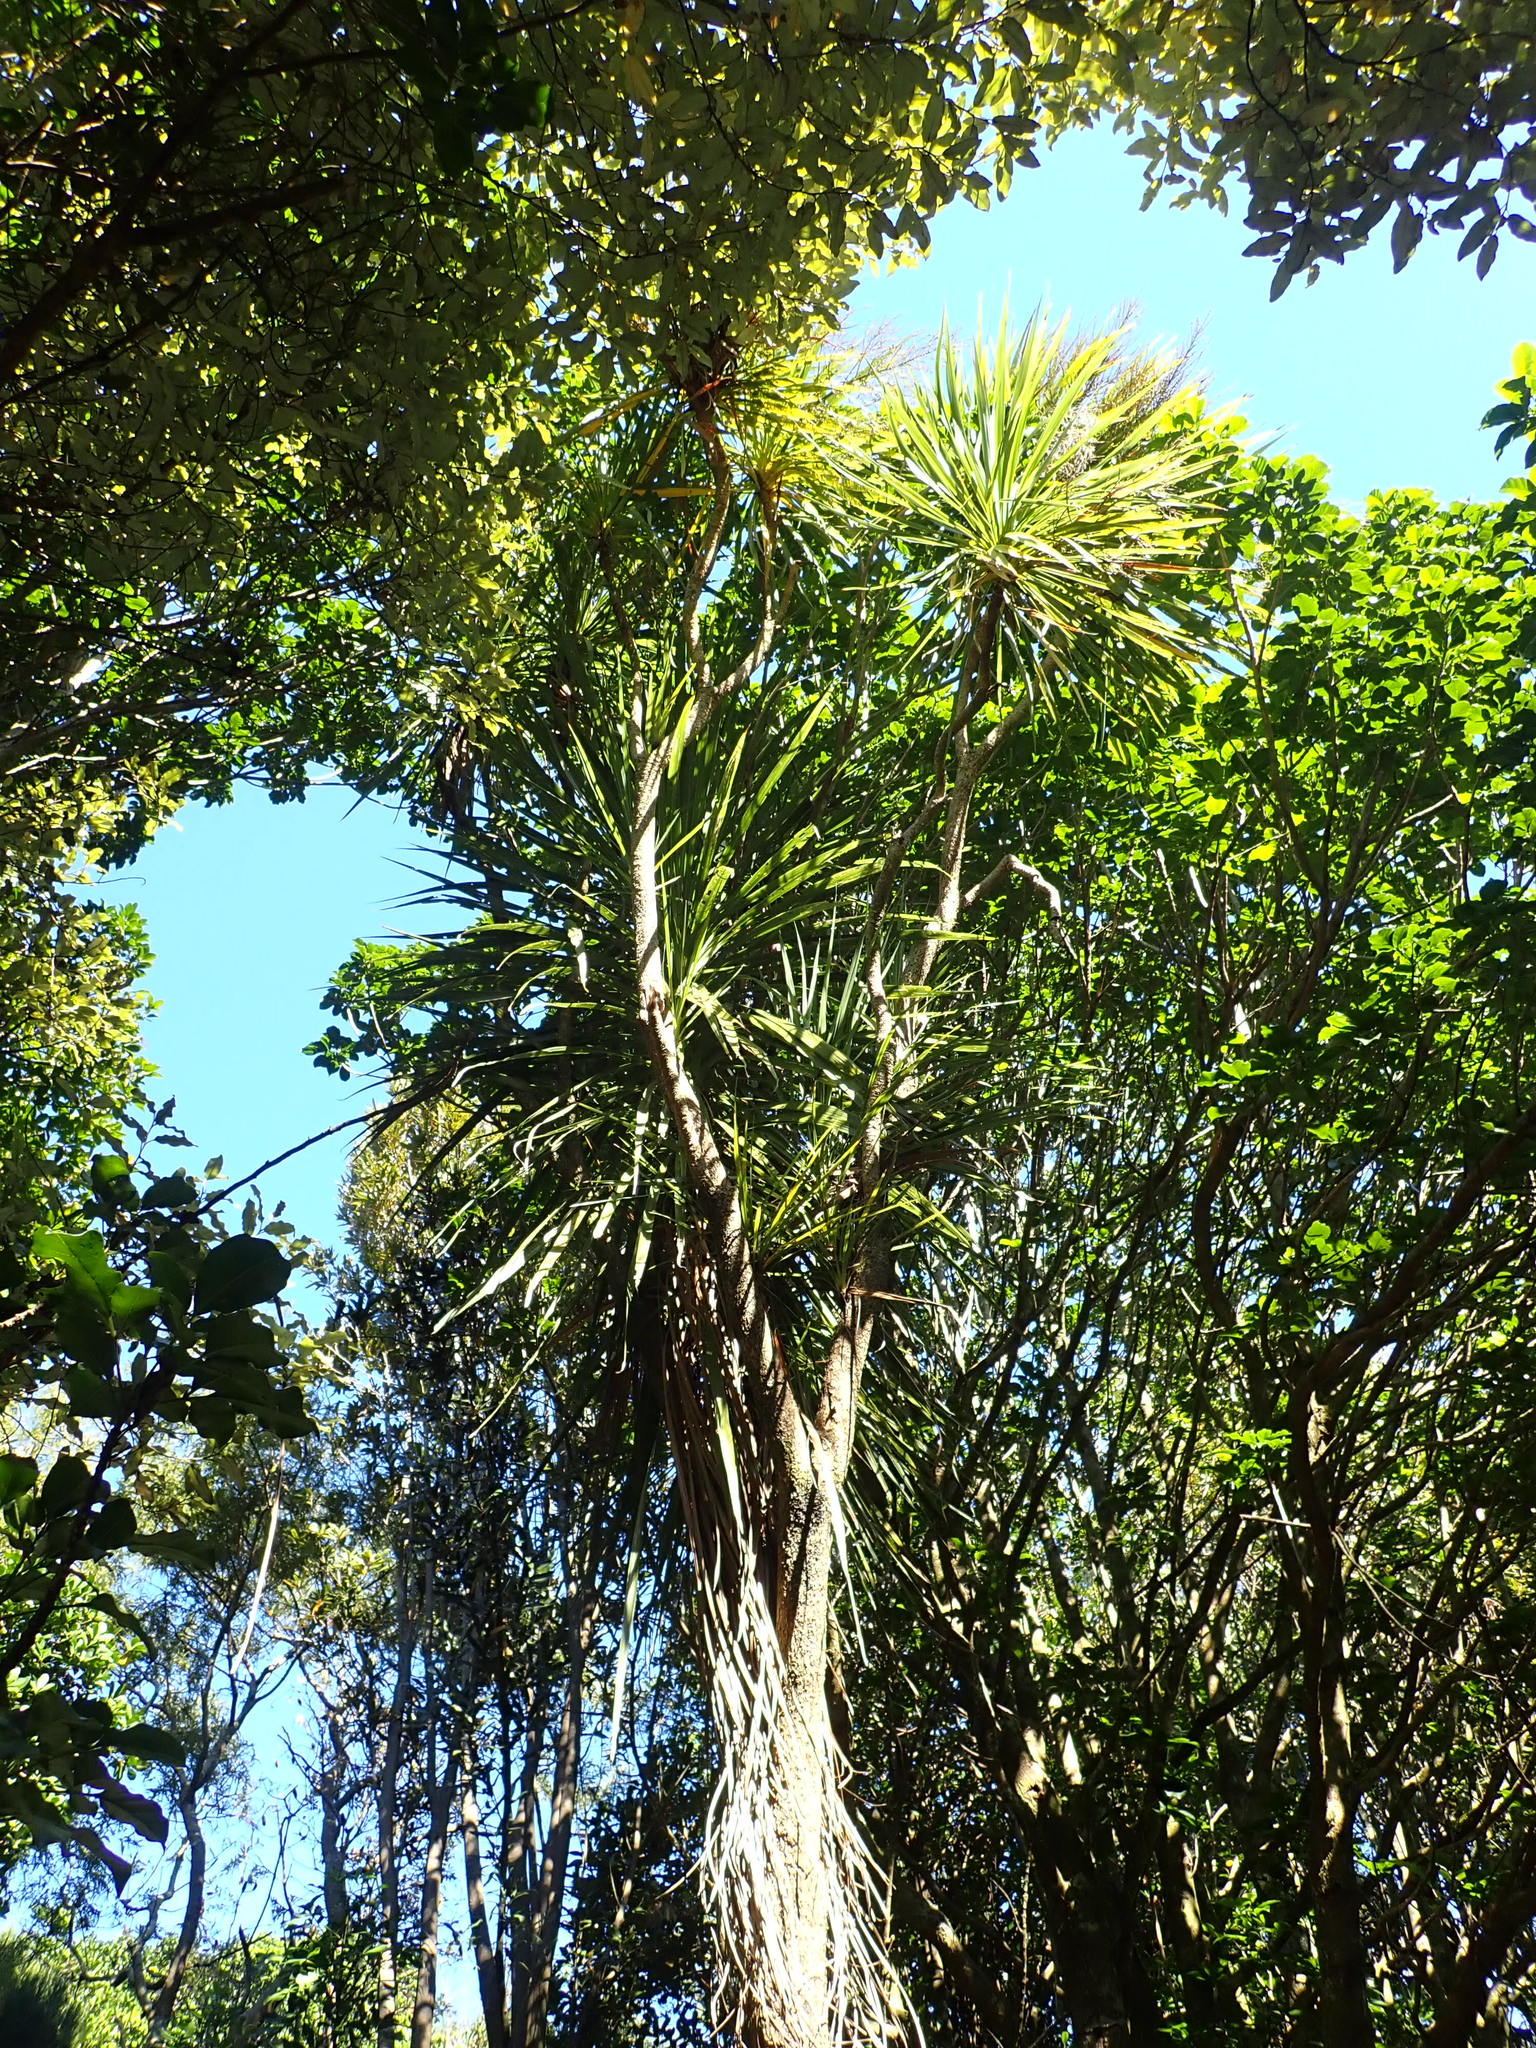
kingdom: Plantae
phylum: Tracheophyta
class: Liliopsida
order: Asparagales
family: Asparagaceae
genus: Cordyline
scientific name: Cordyline australis
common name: Cabbage-palm
